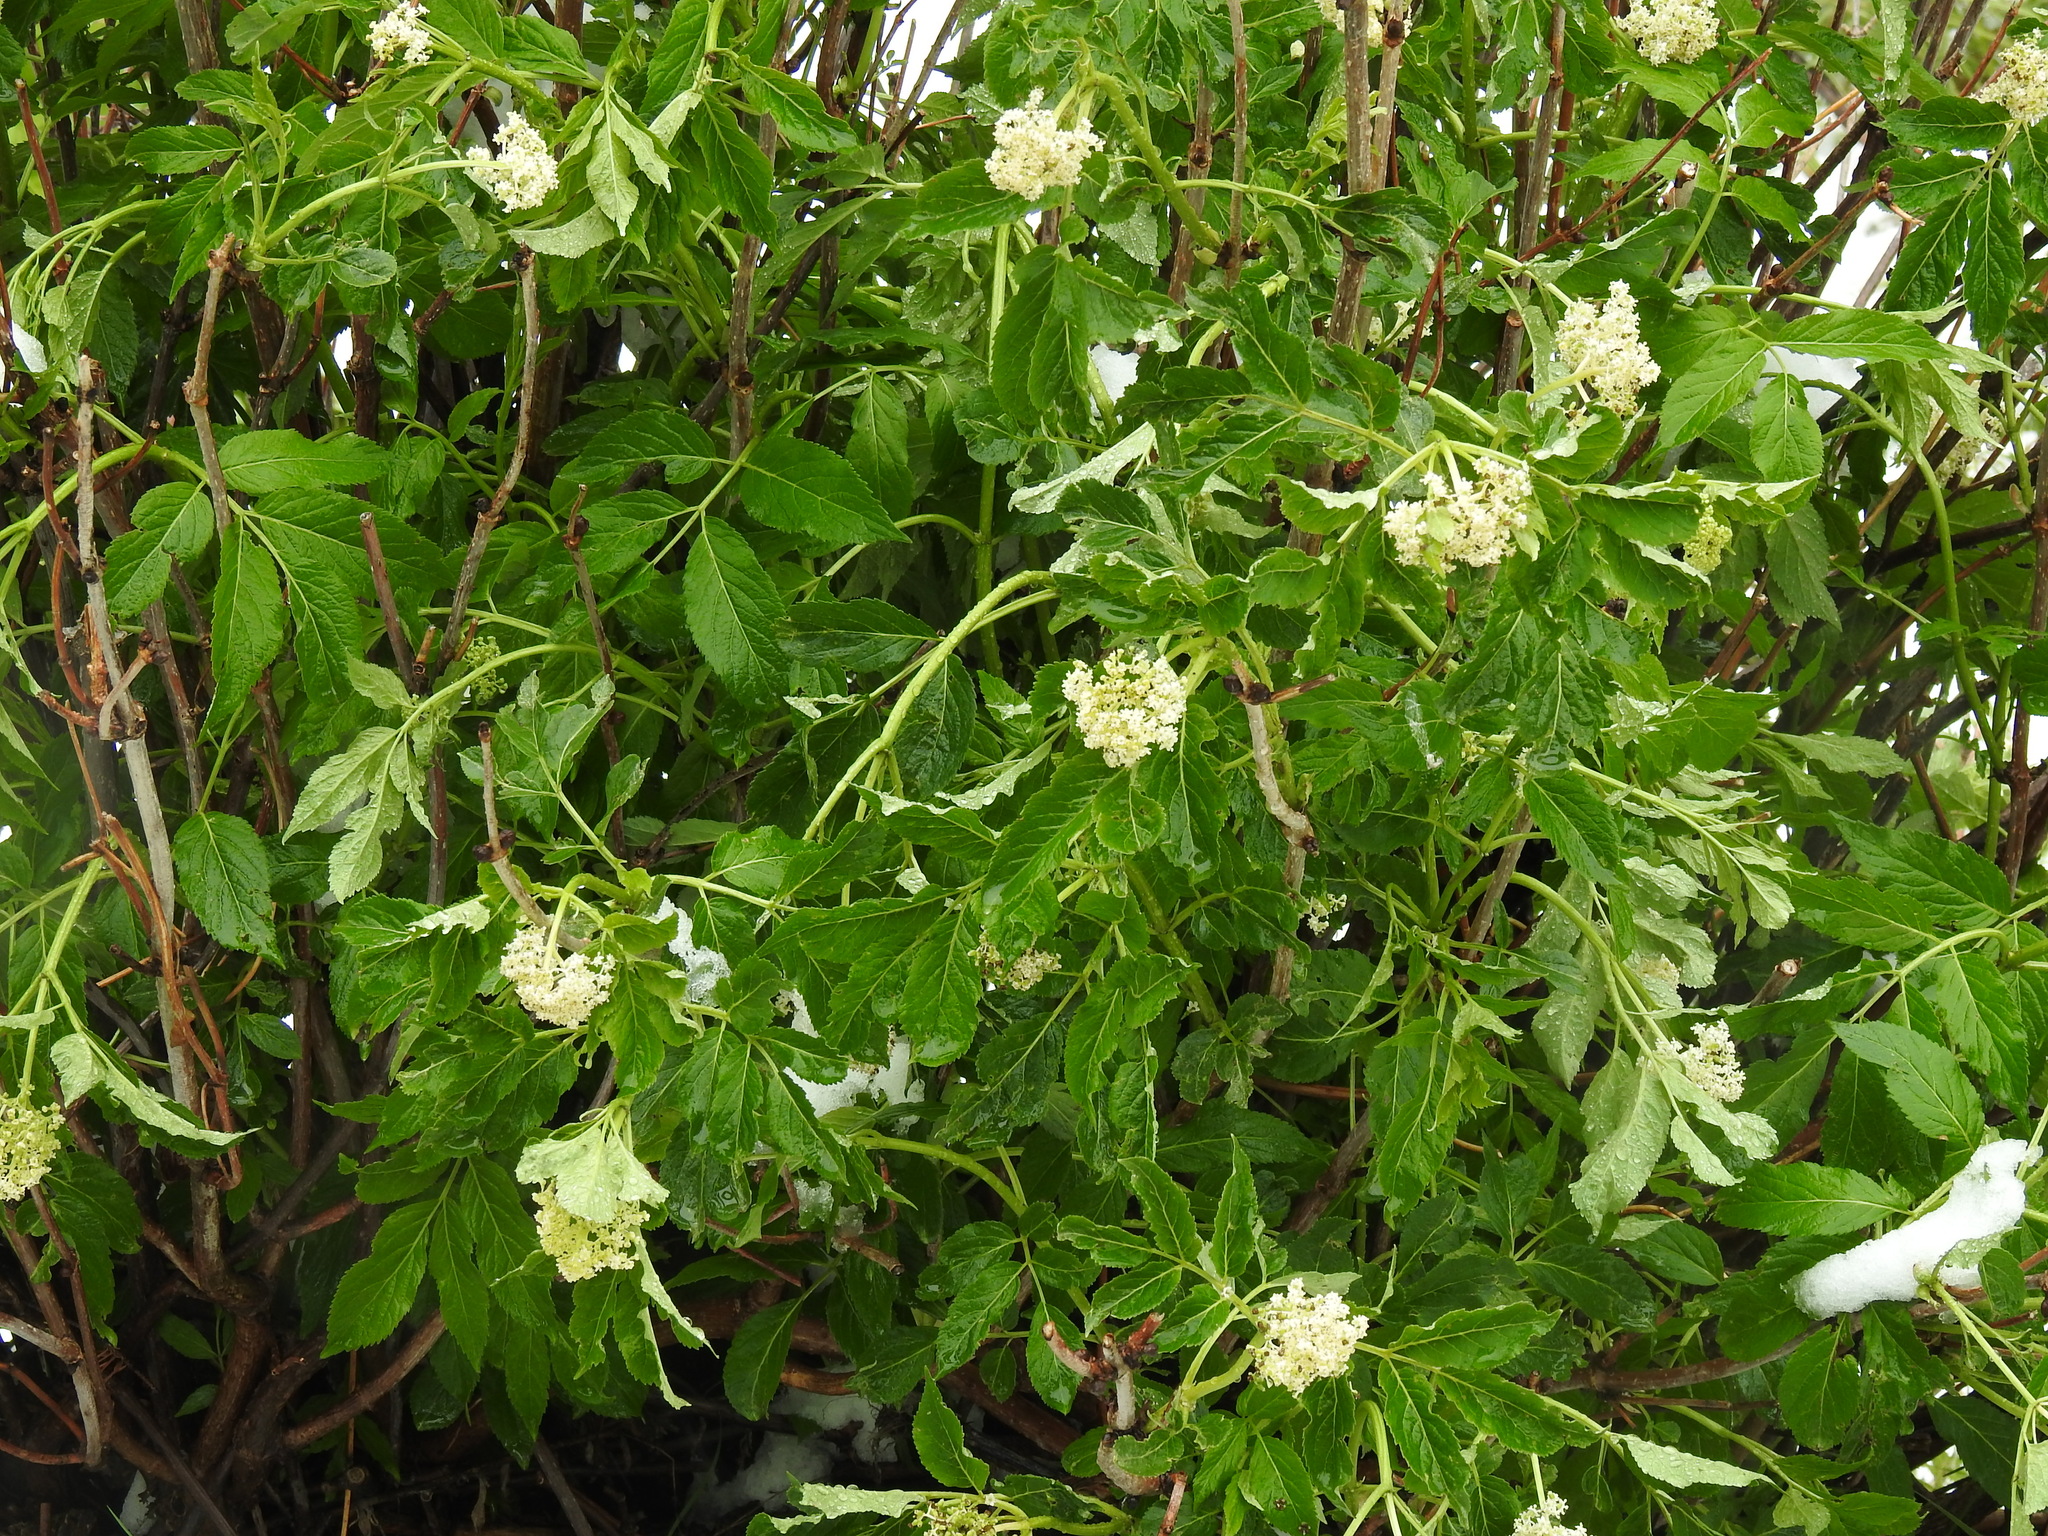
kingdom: Plantae
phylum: Tracheophyta
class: Magnoliopsida
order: Dipsacales
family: Viburnaceae
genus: Sambucus
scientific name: Sambucus racemosa
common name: Red-berried elder
